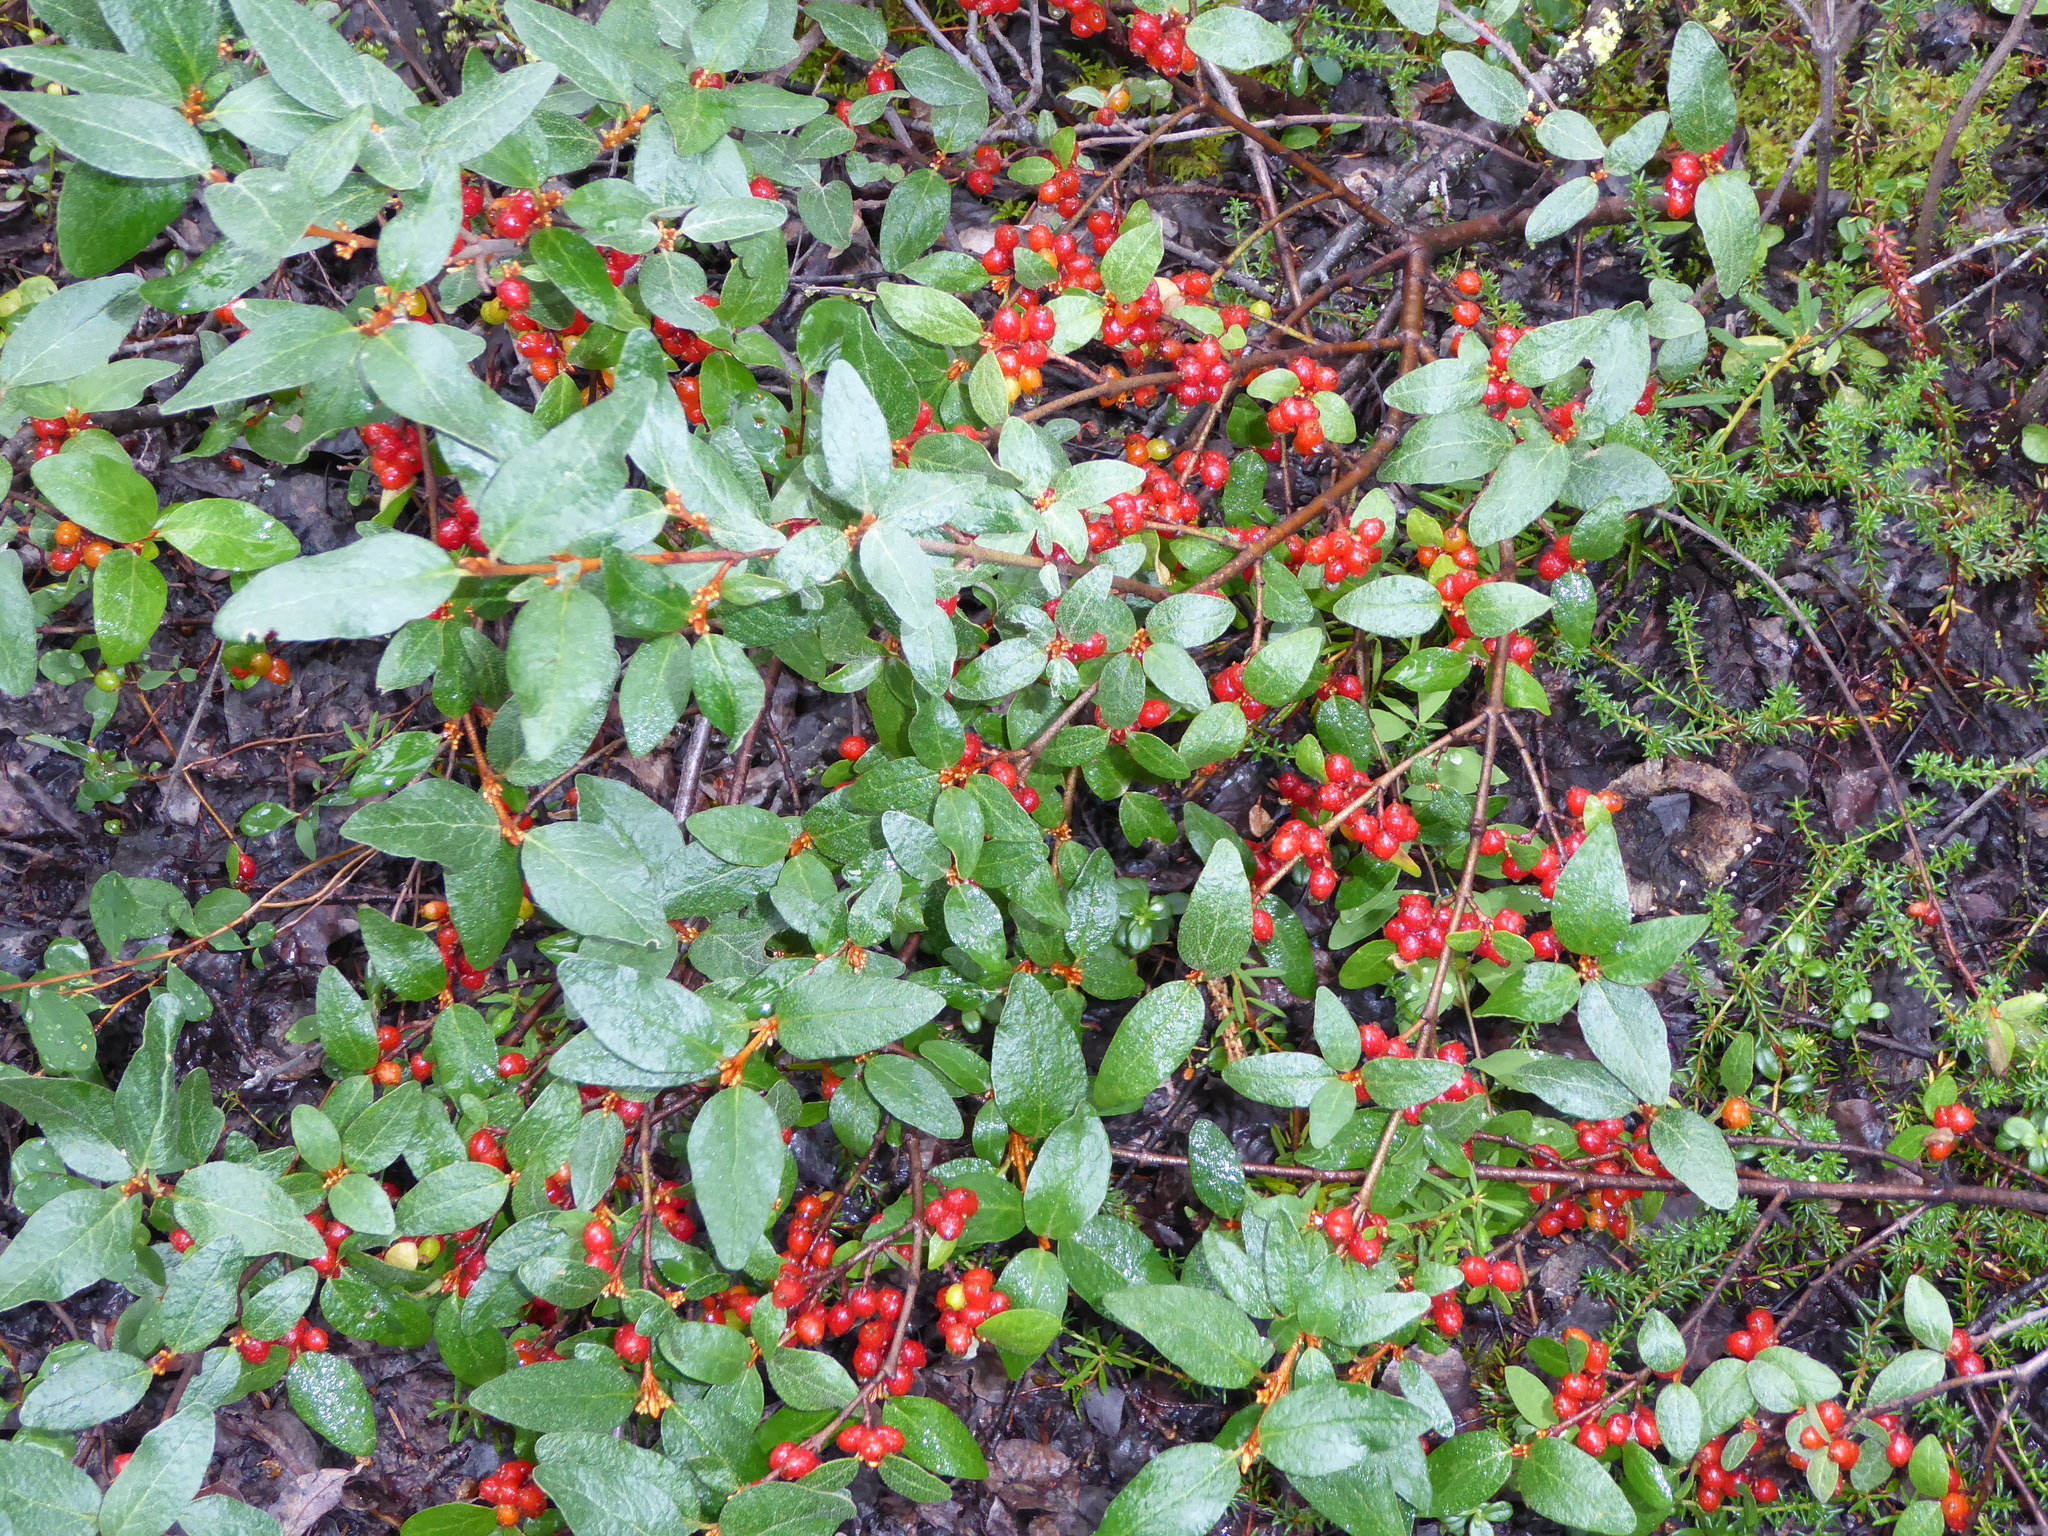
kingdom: Plantae
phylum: Tracheophyta
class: Magnoliopsida
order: Rosales
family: Elaeagnaceae
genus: Shepherdia
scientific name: Shepherdia canadensis
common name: Soapberry
